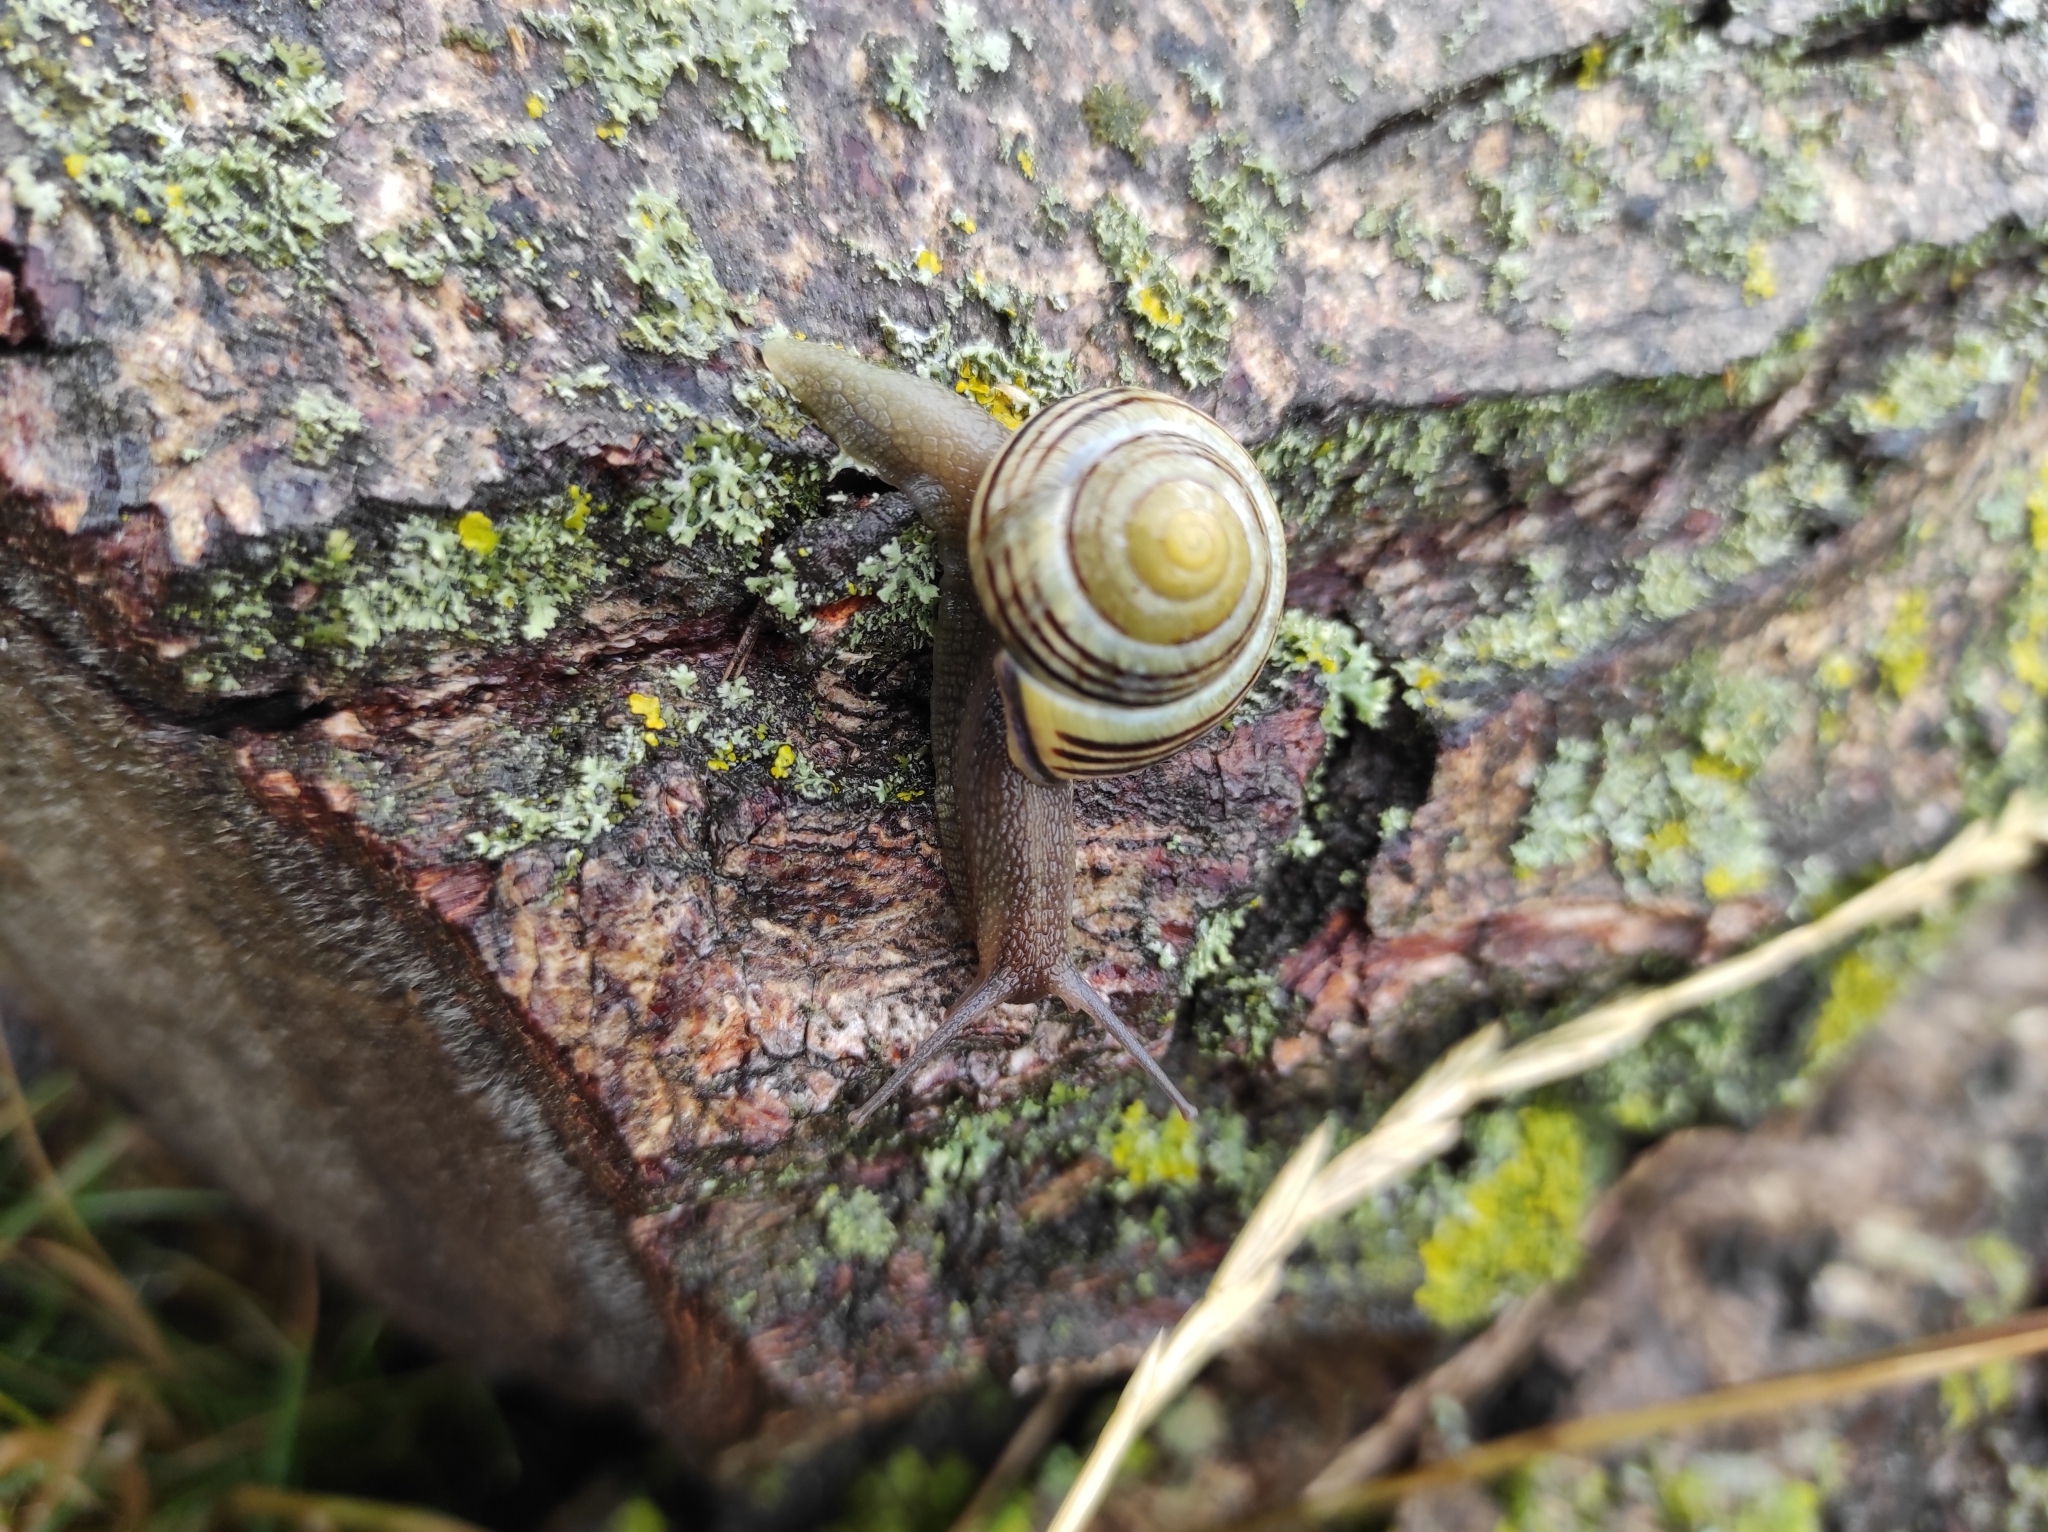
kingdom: Animalia
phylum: Mollusca
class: Gastropoda
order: Stylommatophora
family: Helicidae
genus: Cepaea
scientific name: Cepaea nemoralis
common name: Grovesnail
